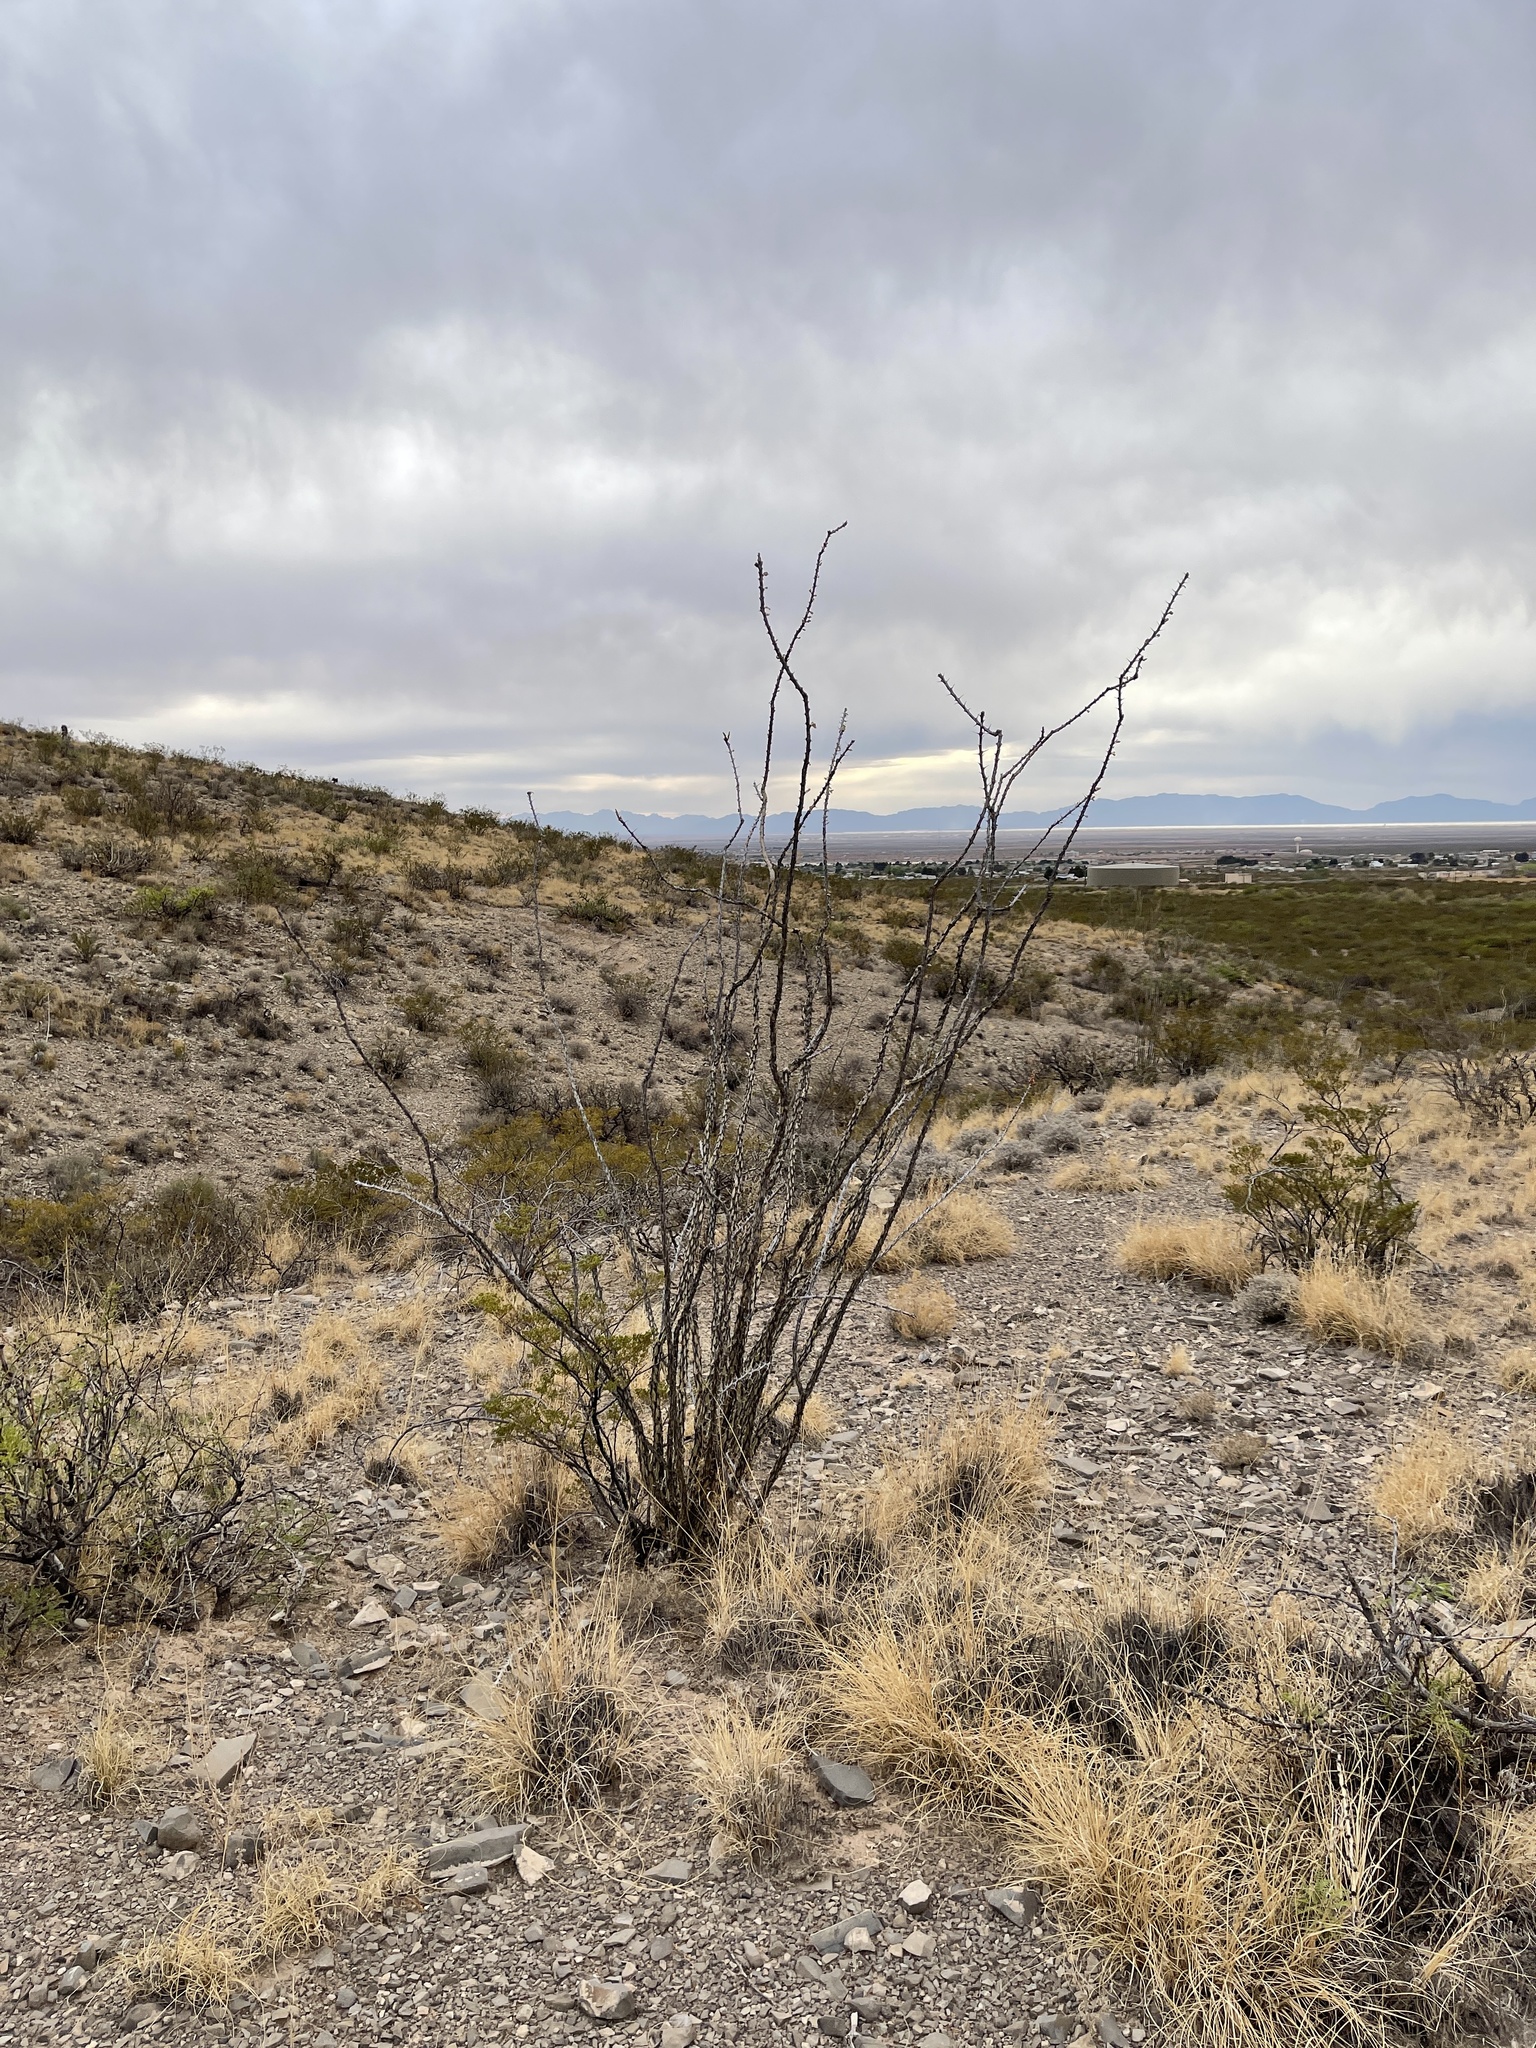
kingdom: Plantae
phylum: Tracheophyta
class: Magnoliopsida
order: Ericales
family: Fouquieriaceae
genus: Fouquieria
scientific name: Fouquieria splendens
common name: Vine-cactus
